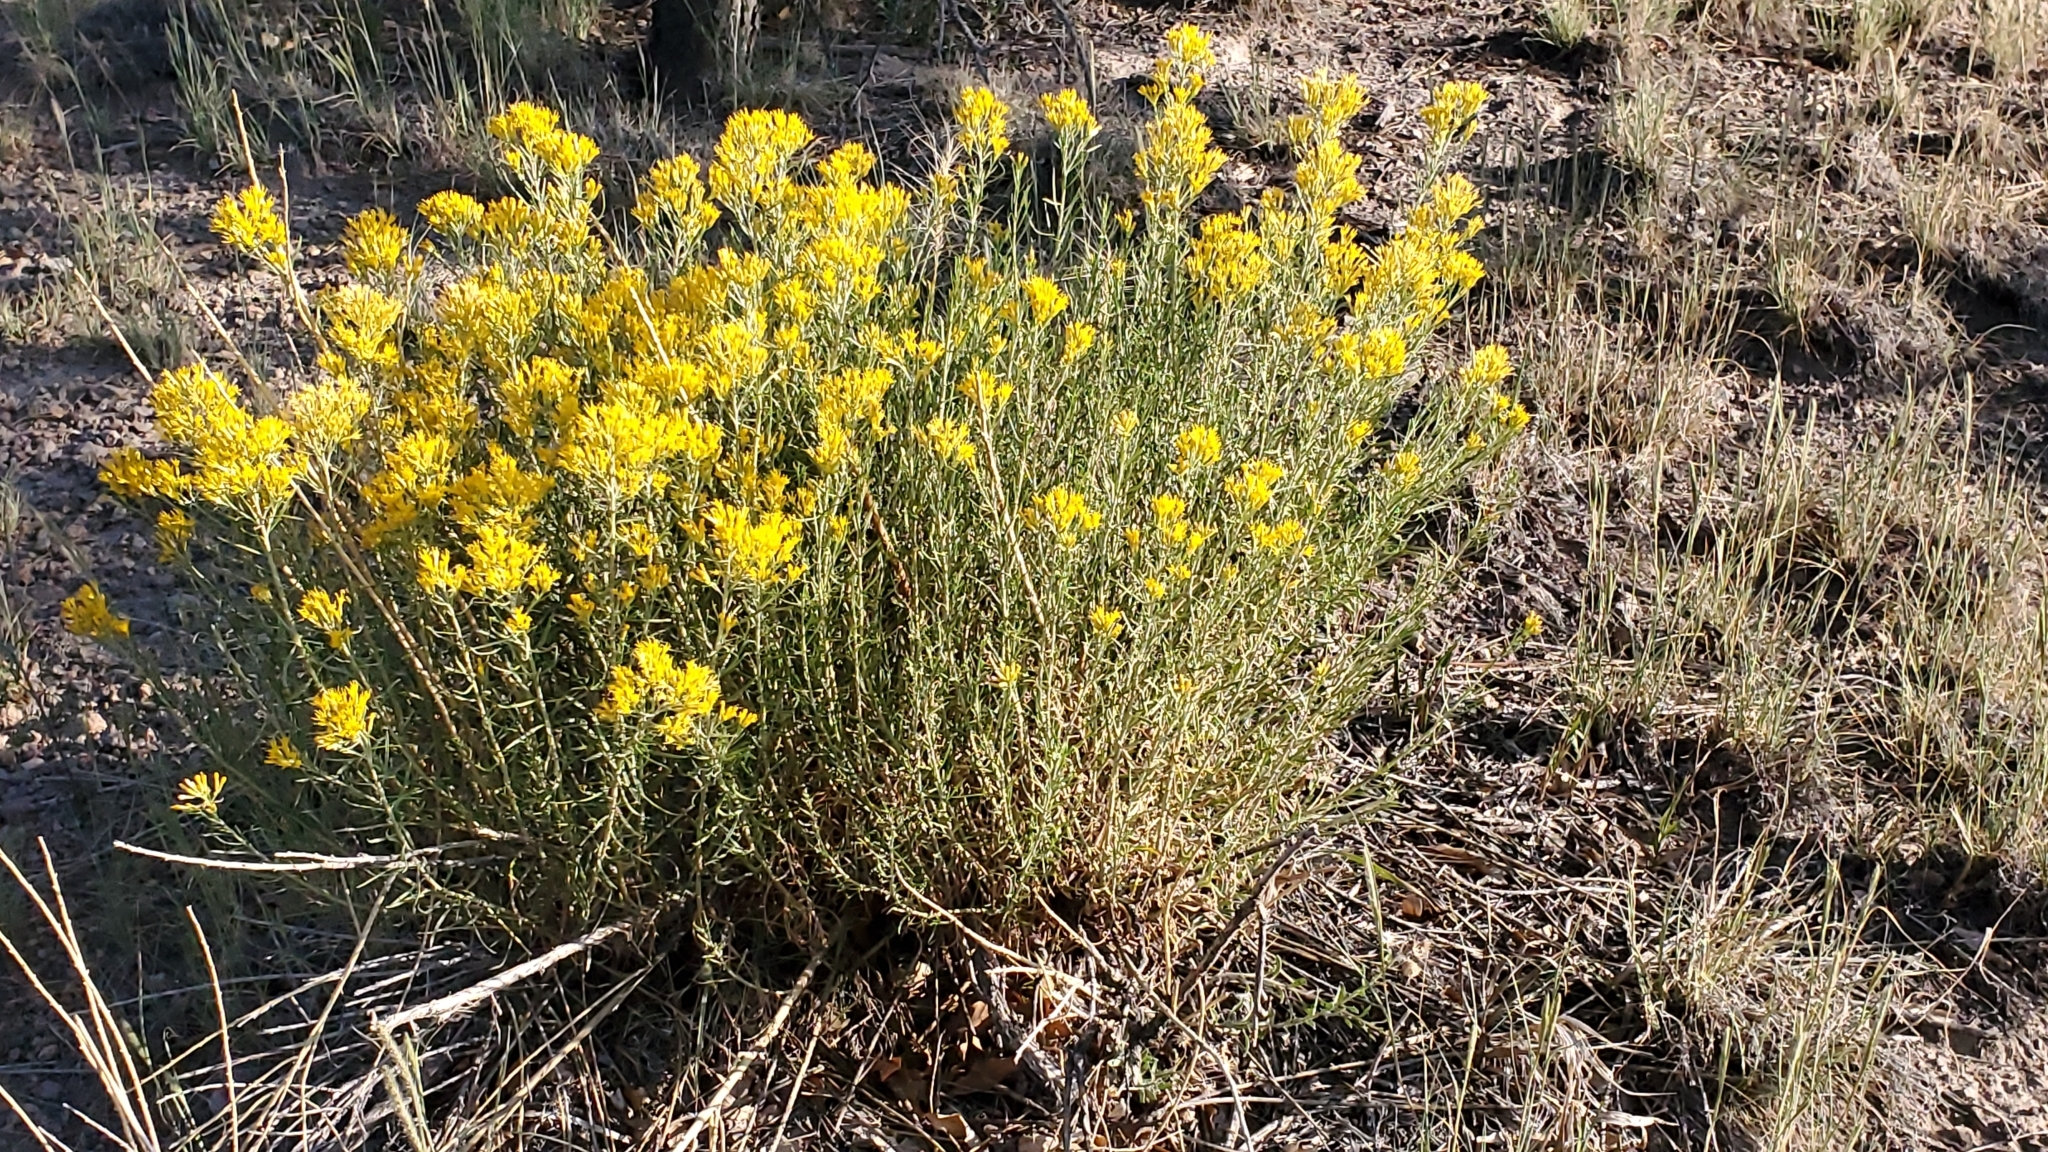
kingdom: Plantae
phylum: Tracheophyta
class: Magnoliopsida
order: Asterales
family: Asteraceae
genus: Ericameria
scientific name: Ericameria nauseosa
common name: Rubber rabbitbrush
